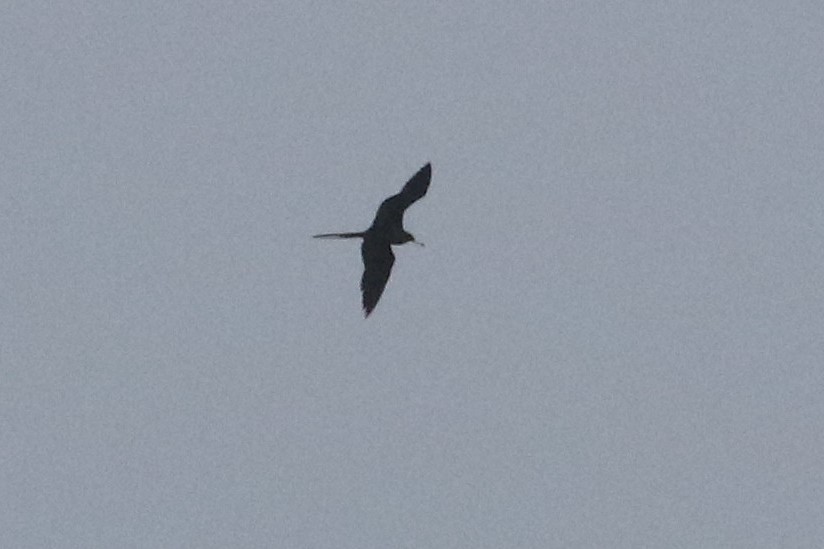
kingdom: Animalia
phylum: Chordata
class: Aves
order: Suliformes
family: Fregatidae
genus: Fregata
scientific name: Fregata magnificens
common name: Magnificent frigatebird
